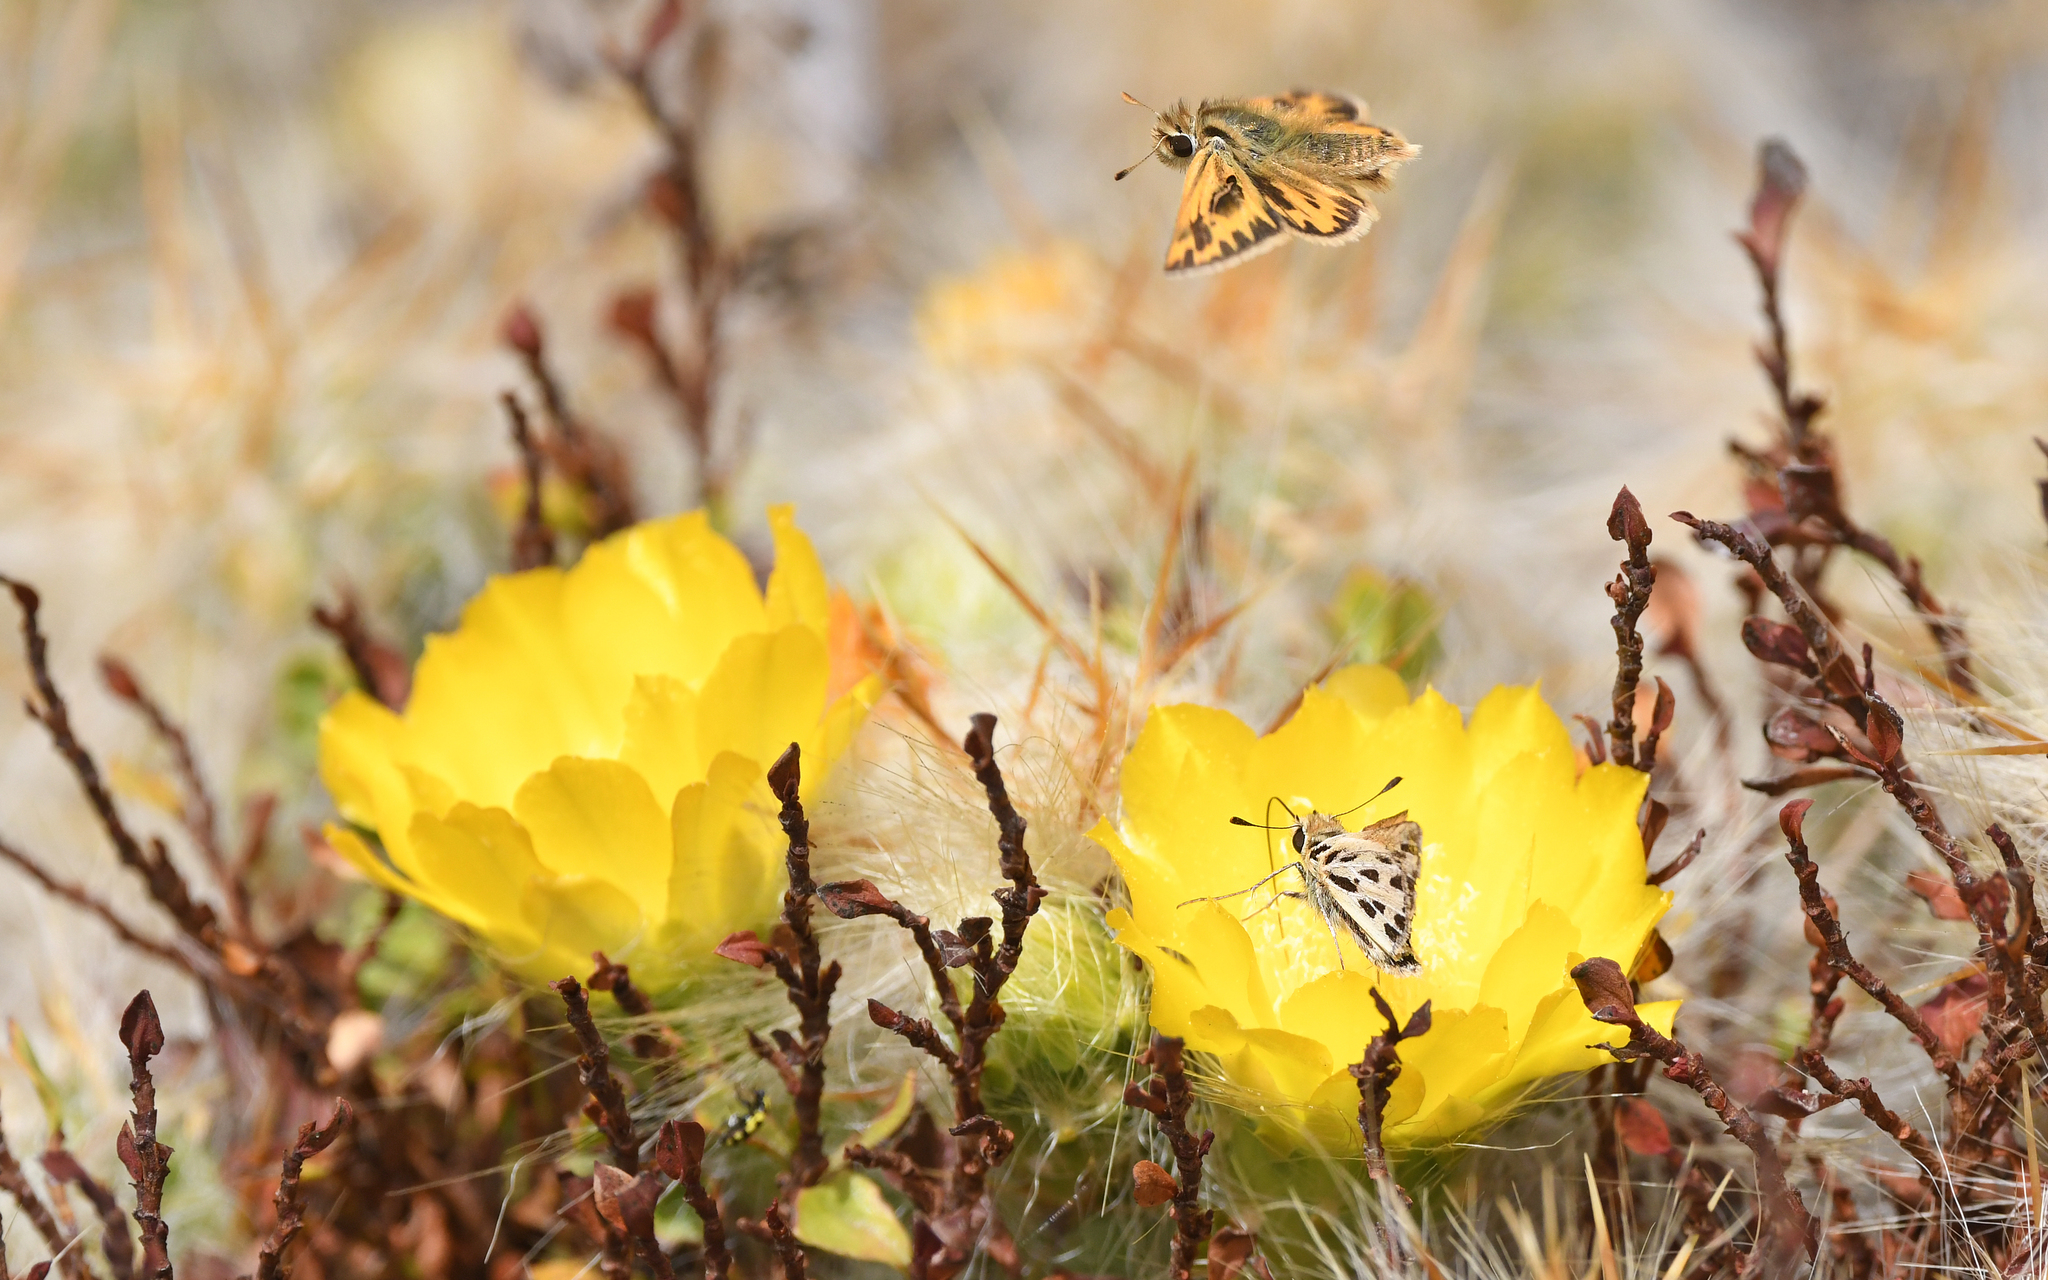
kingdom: Animalia
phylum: Arthropoda
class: Insecta
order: Lepidoptera
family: Hesperiidae
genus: Hylephila
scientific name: Hylephila boulleti
